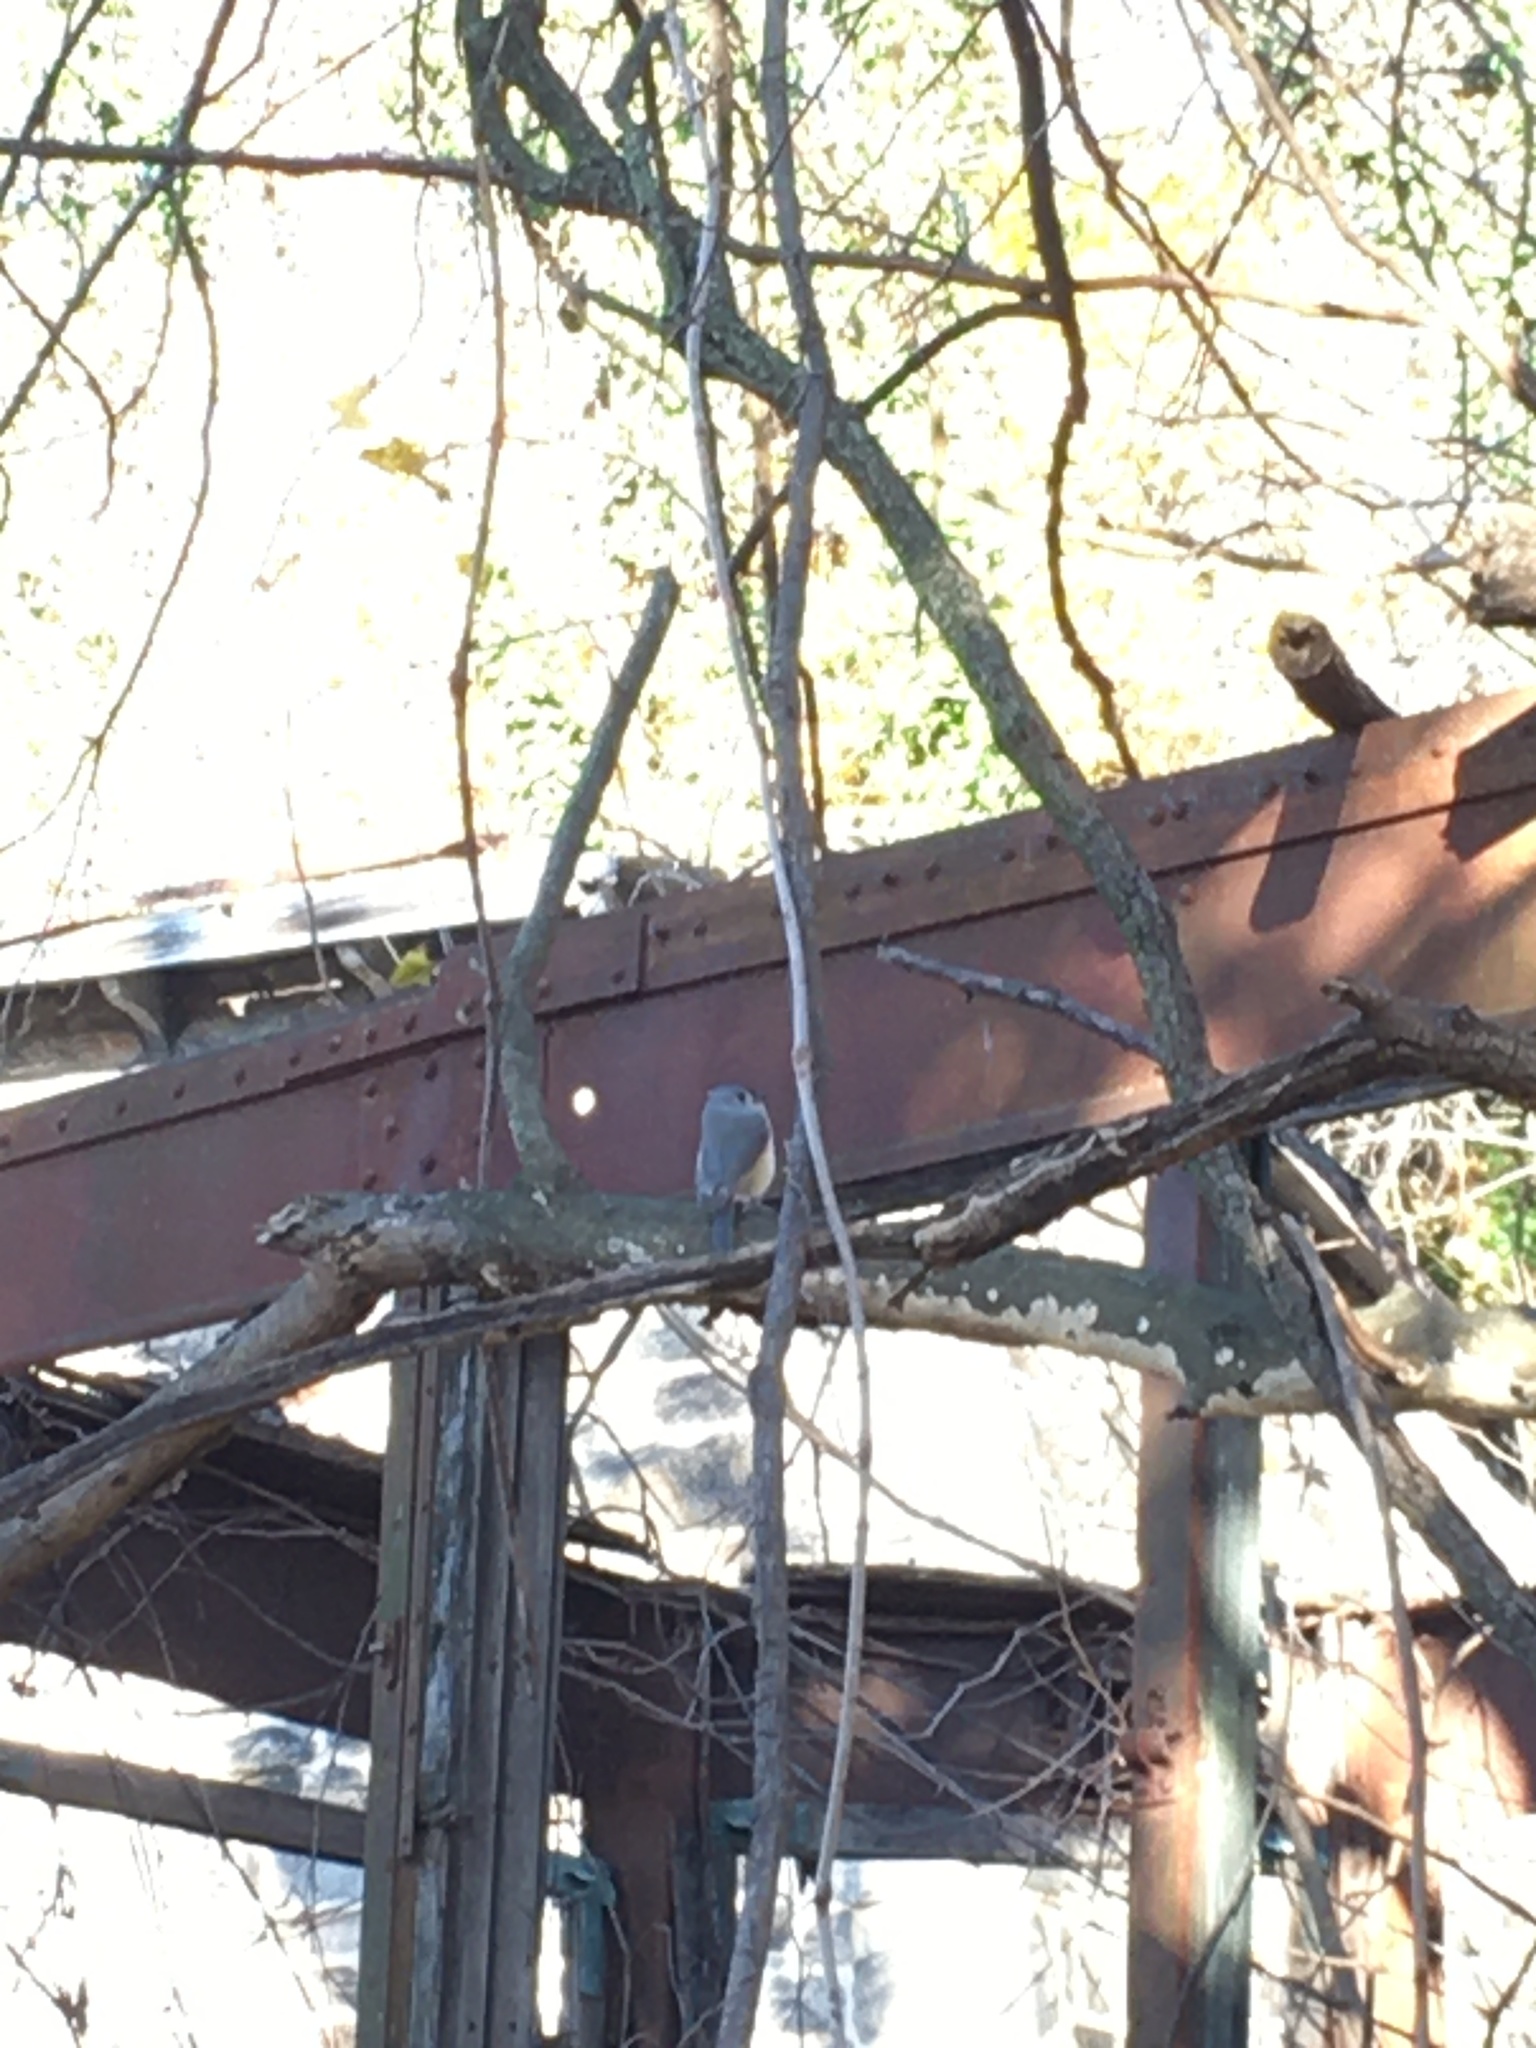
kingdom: Animalia
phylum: Chordata
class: Aves
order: Passeriformes
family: Paridae
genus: Baeolophus
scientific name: Baeolophus bicolor
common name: Tufted titmouse
